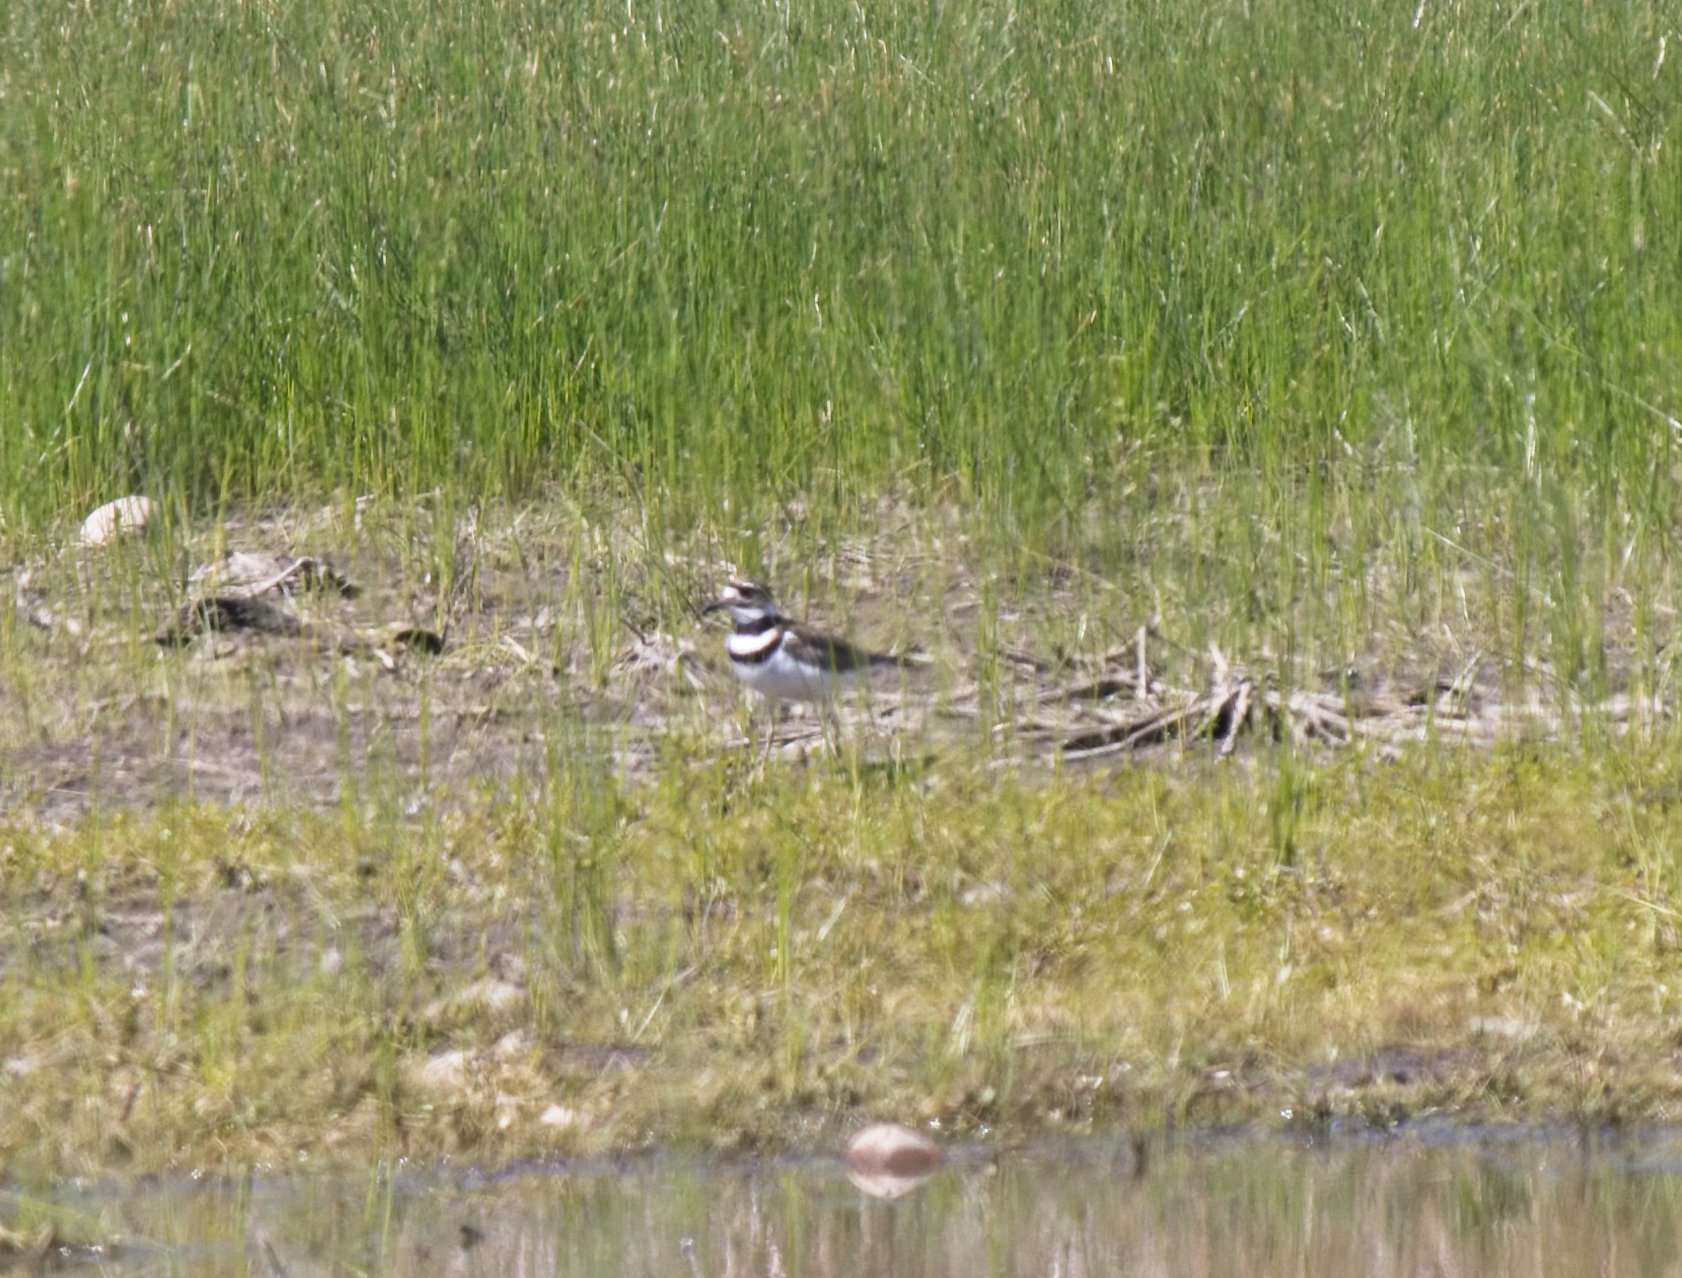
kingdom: Animalia
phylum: Chordata
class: Aves
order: Charadriiformes
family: Charadriidae
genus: Charadrius
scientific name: Charadrius vociferus
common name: Killdeer
